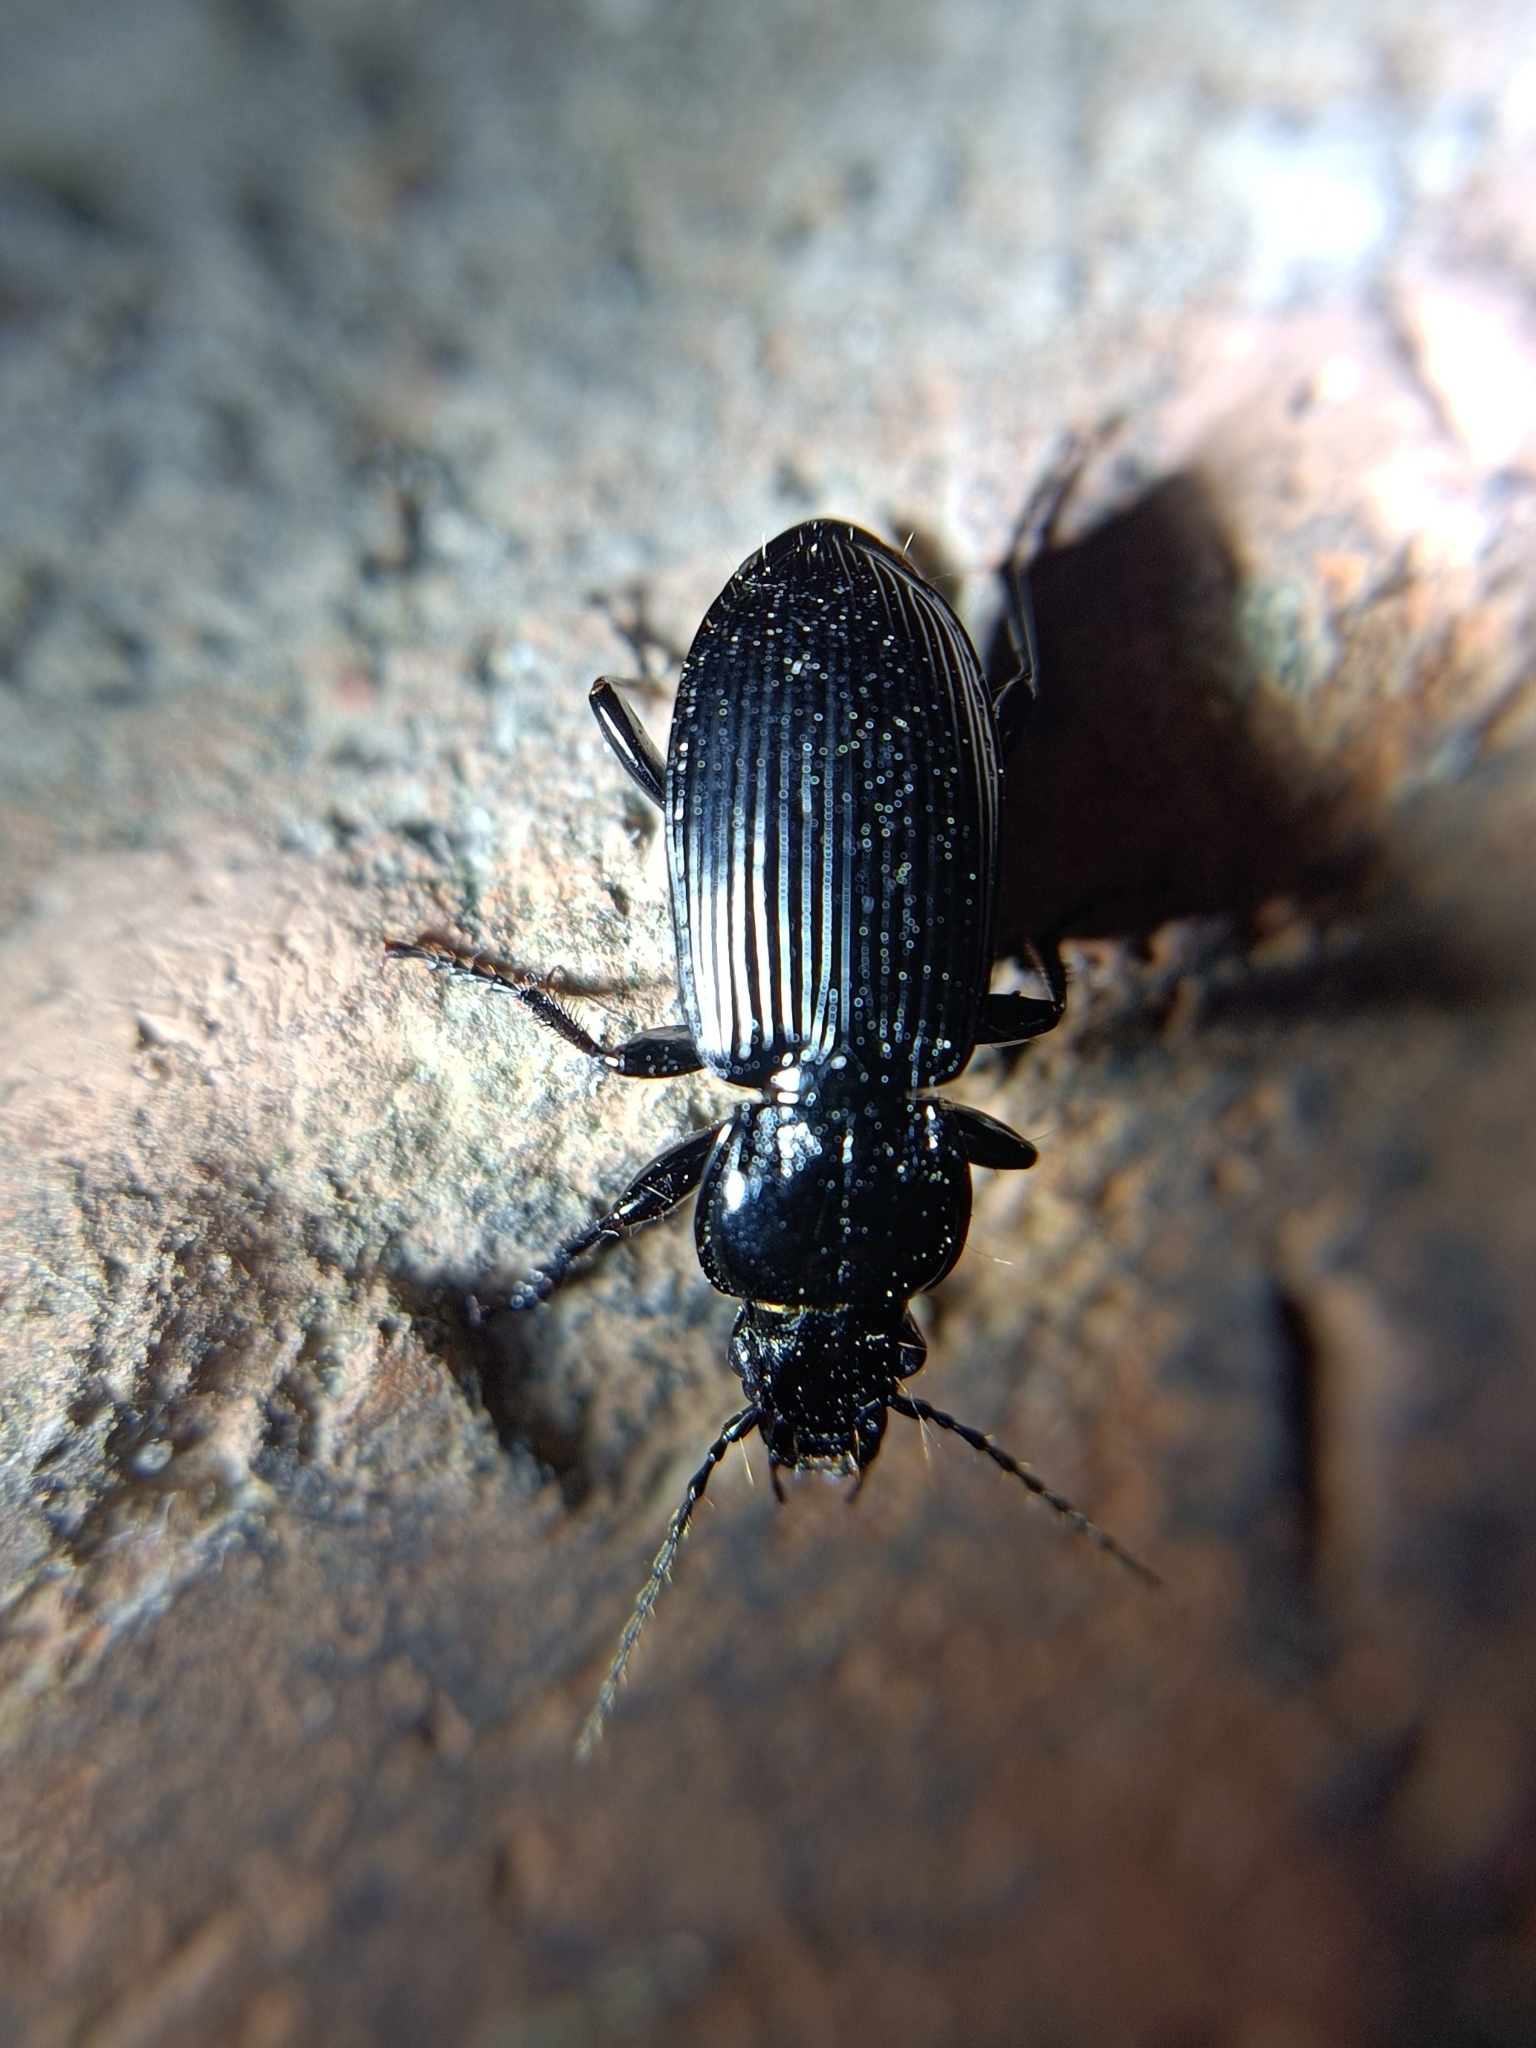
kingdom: Animalia
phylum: Arthropoda
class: Insecta
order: Coleoptera
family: Carabidae
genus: Pterostichus
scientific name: Pterostichus melanarius
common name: European dark harp ground beetle
